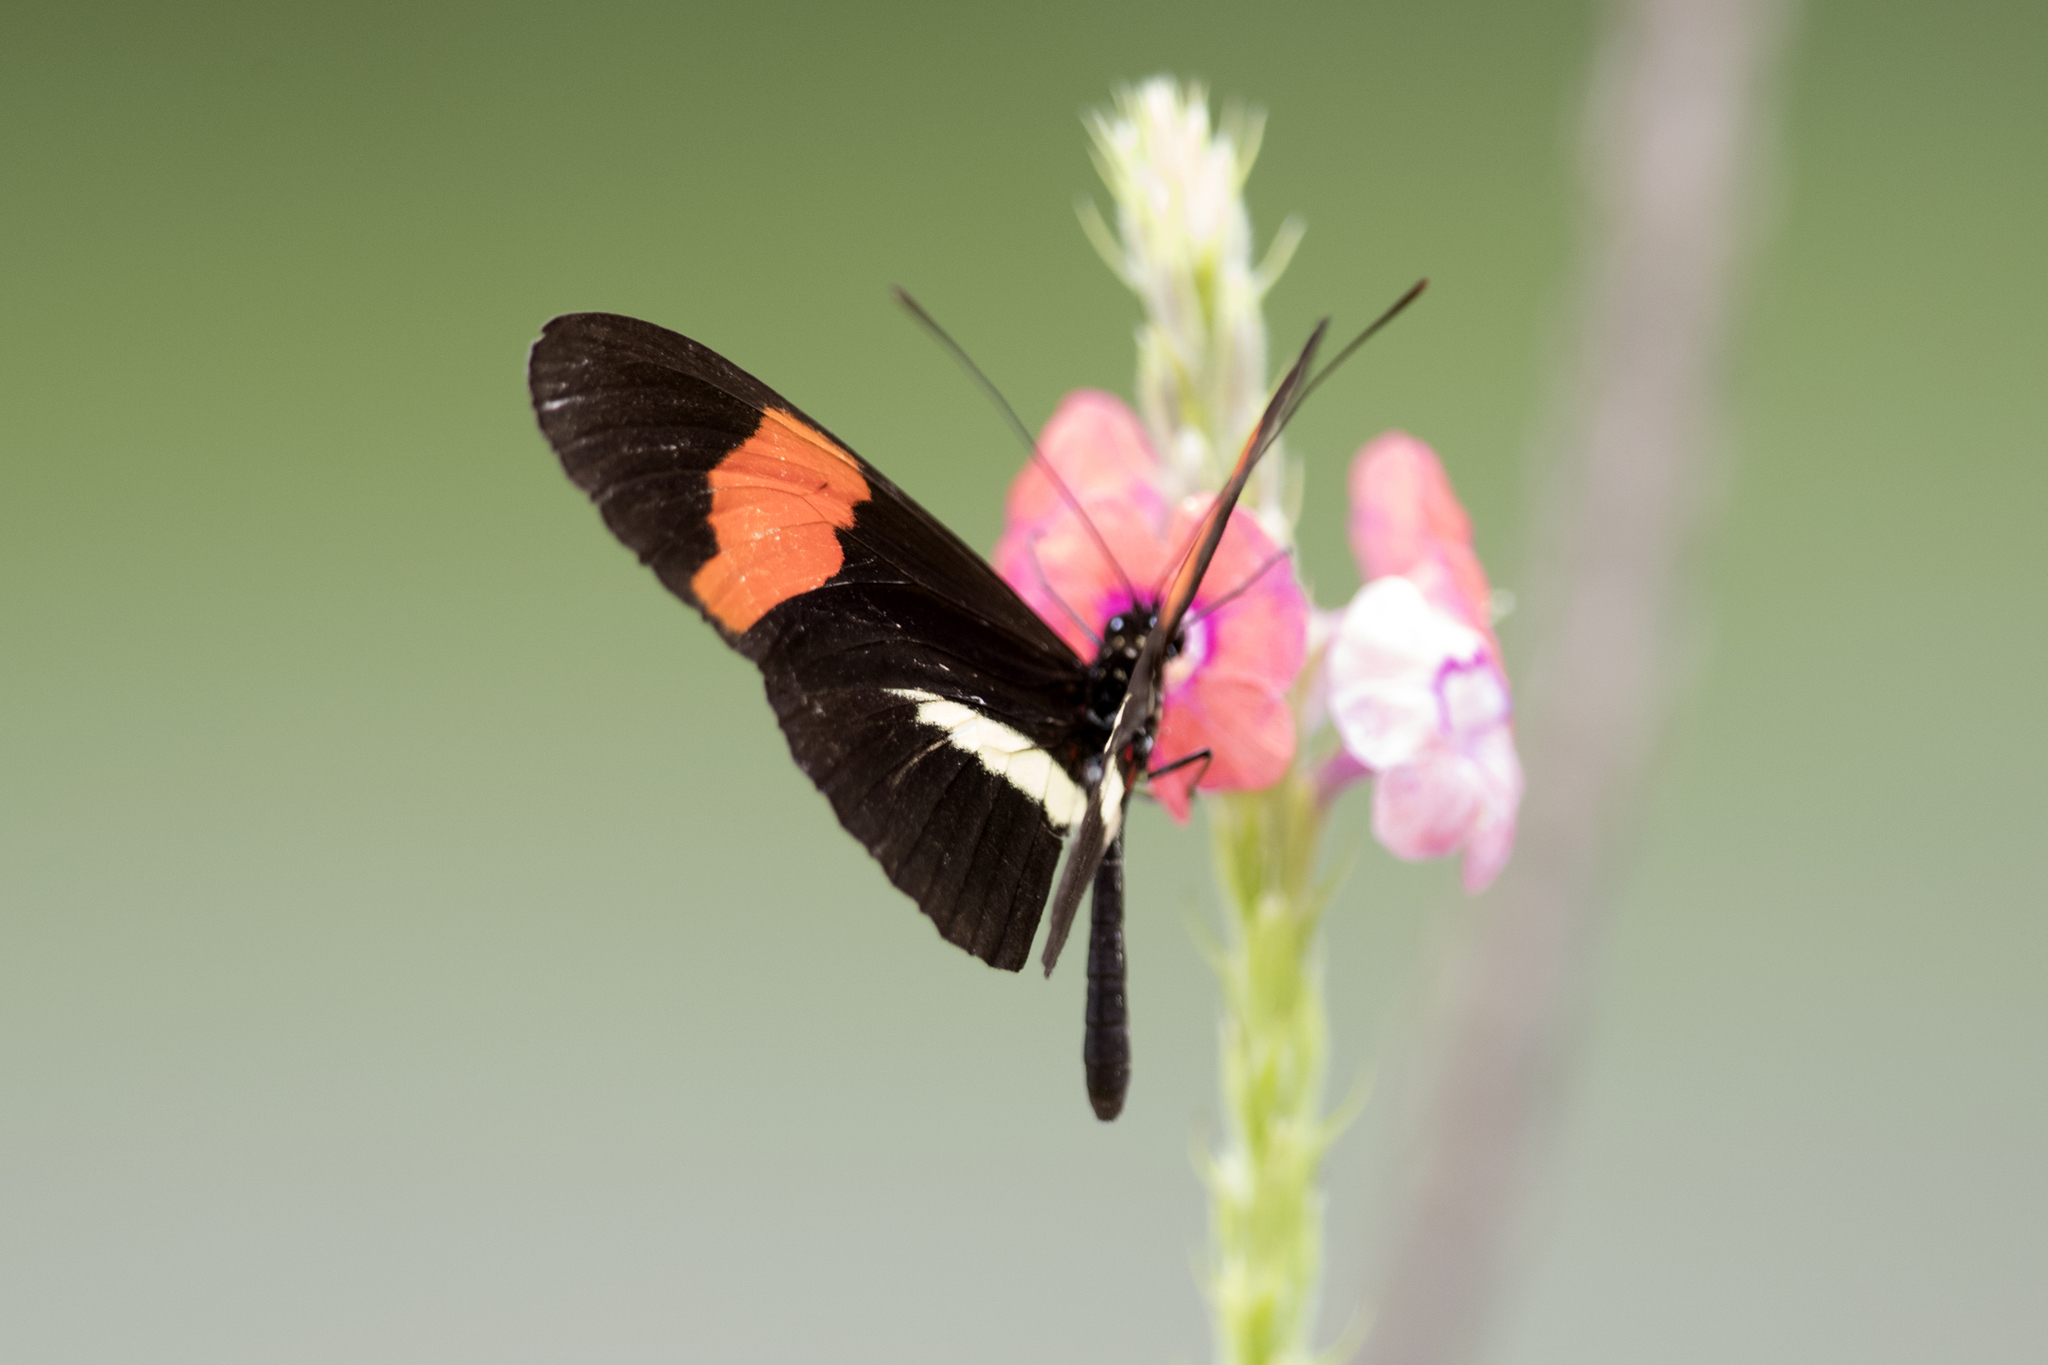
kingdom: Animalia
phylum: Arthropoda
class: Insecta
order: Lepidoptera
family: Nymphalidae
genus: Tirumala
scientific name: Tirumala petiverana
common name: Blue monarch
